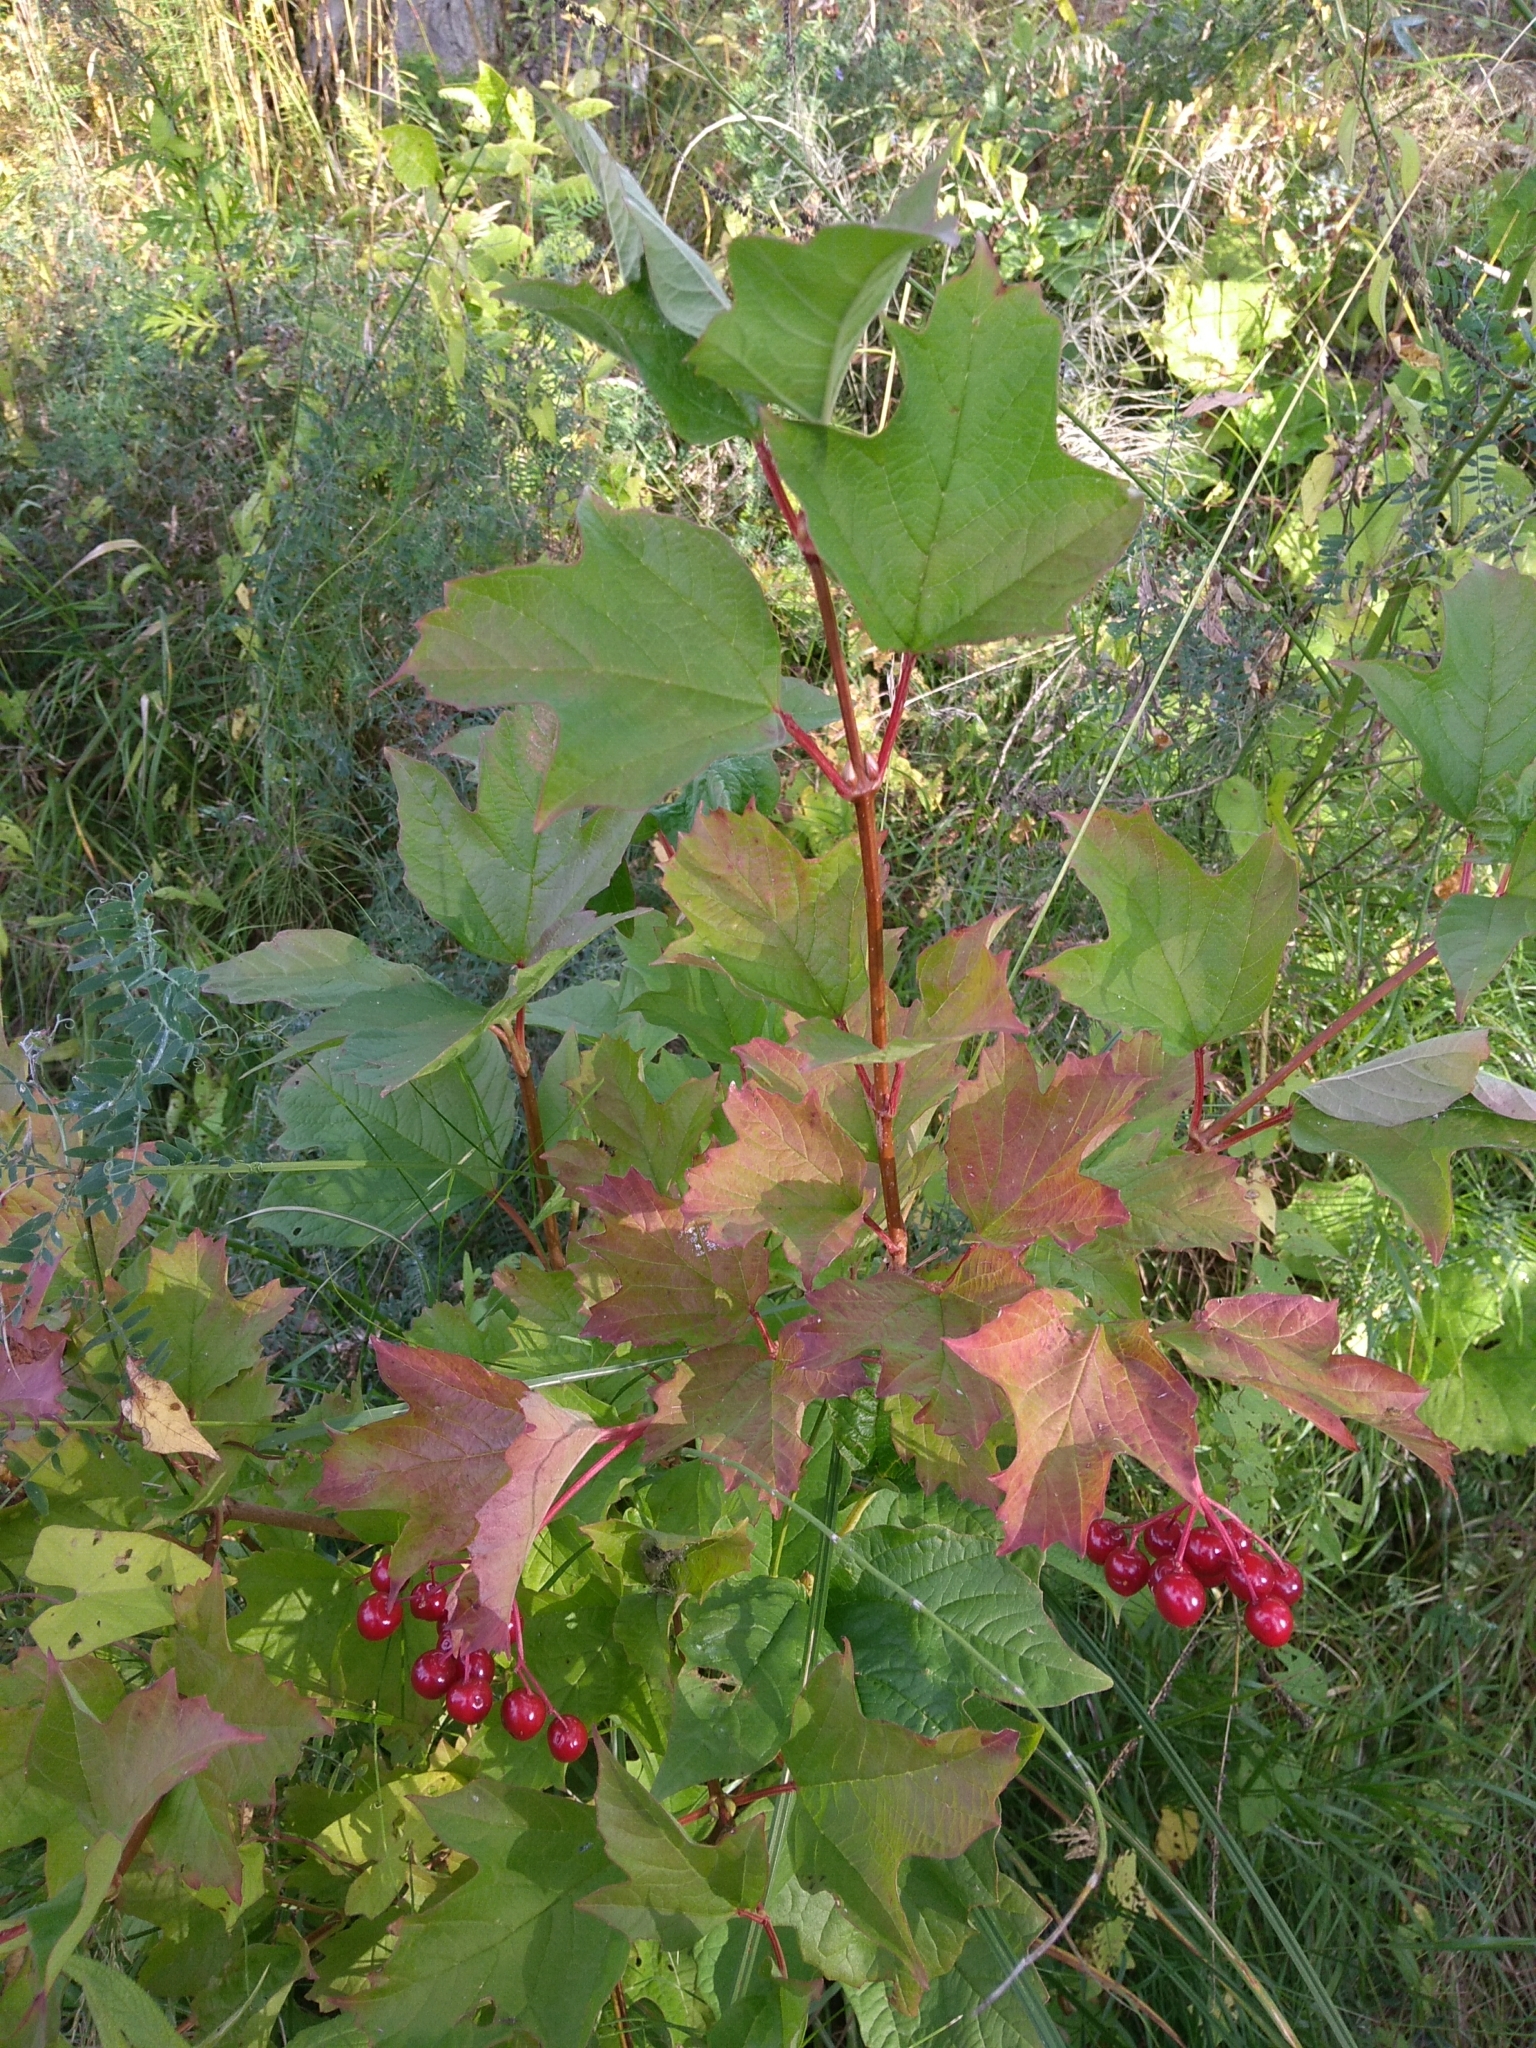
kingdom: Plantae
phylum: Tracheophyta
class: Magnoliopsida
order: Dipsacales
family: Viburnaceae
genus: Viburnum
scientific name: Viburnum opulus
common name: Guelder-rose
